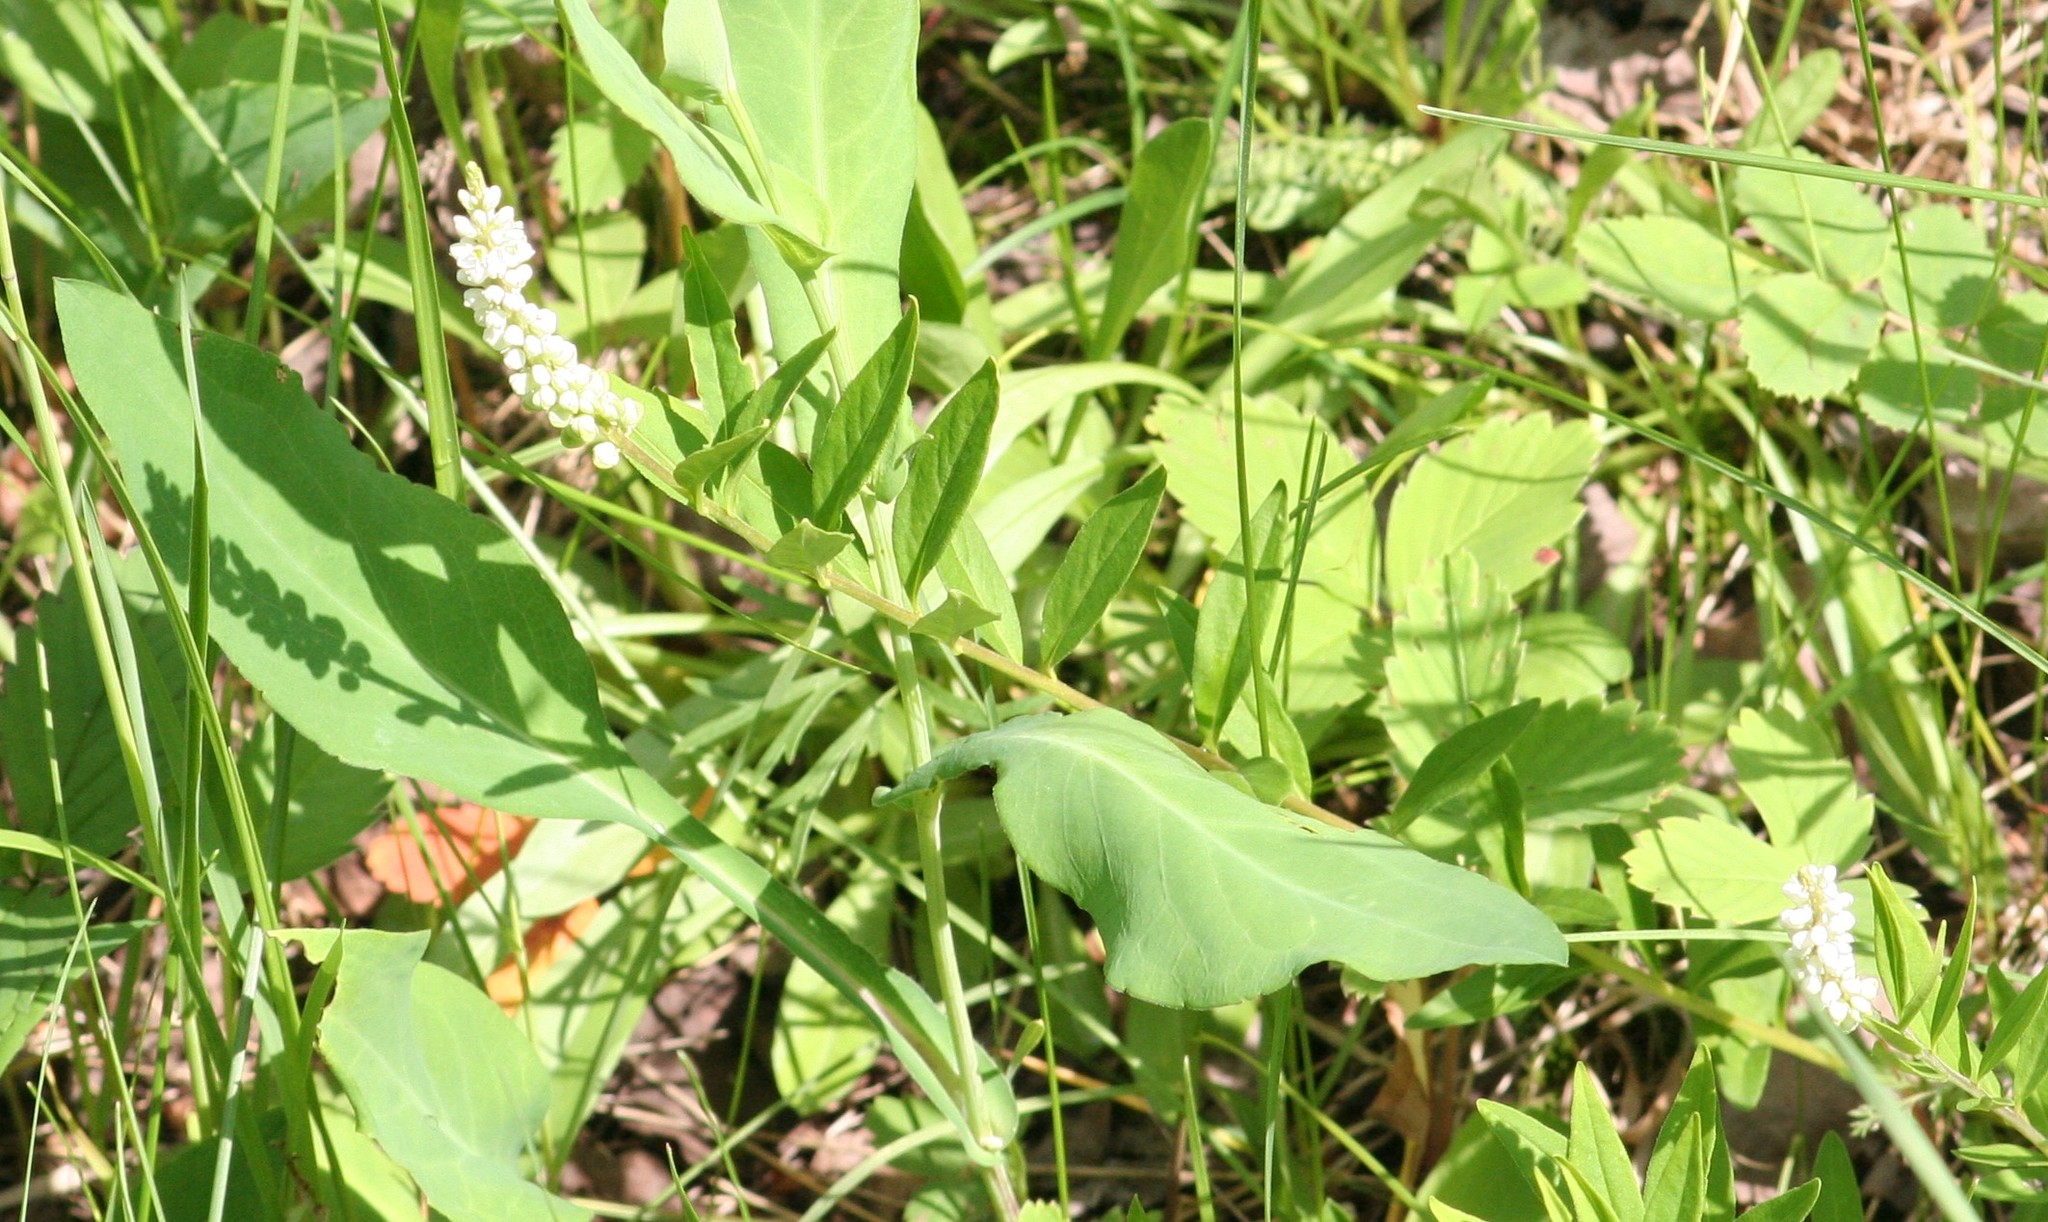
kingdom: Plantae
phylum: Tracheophyta
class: Magnoliopsida
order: Fabales
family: Polygalaceae
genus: Polygala
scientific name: Polygala senega
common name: Seneca snakeroot
